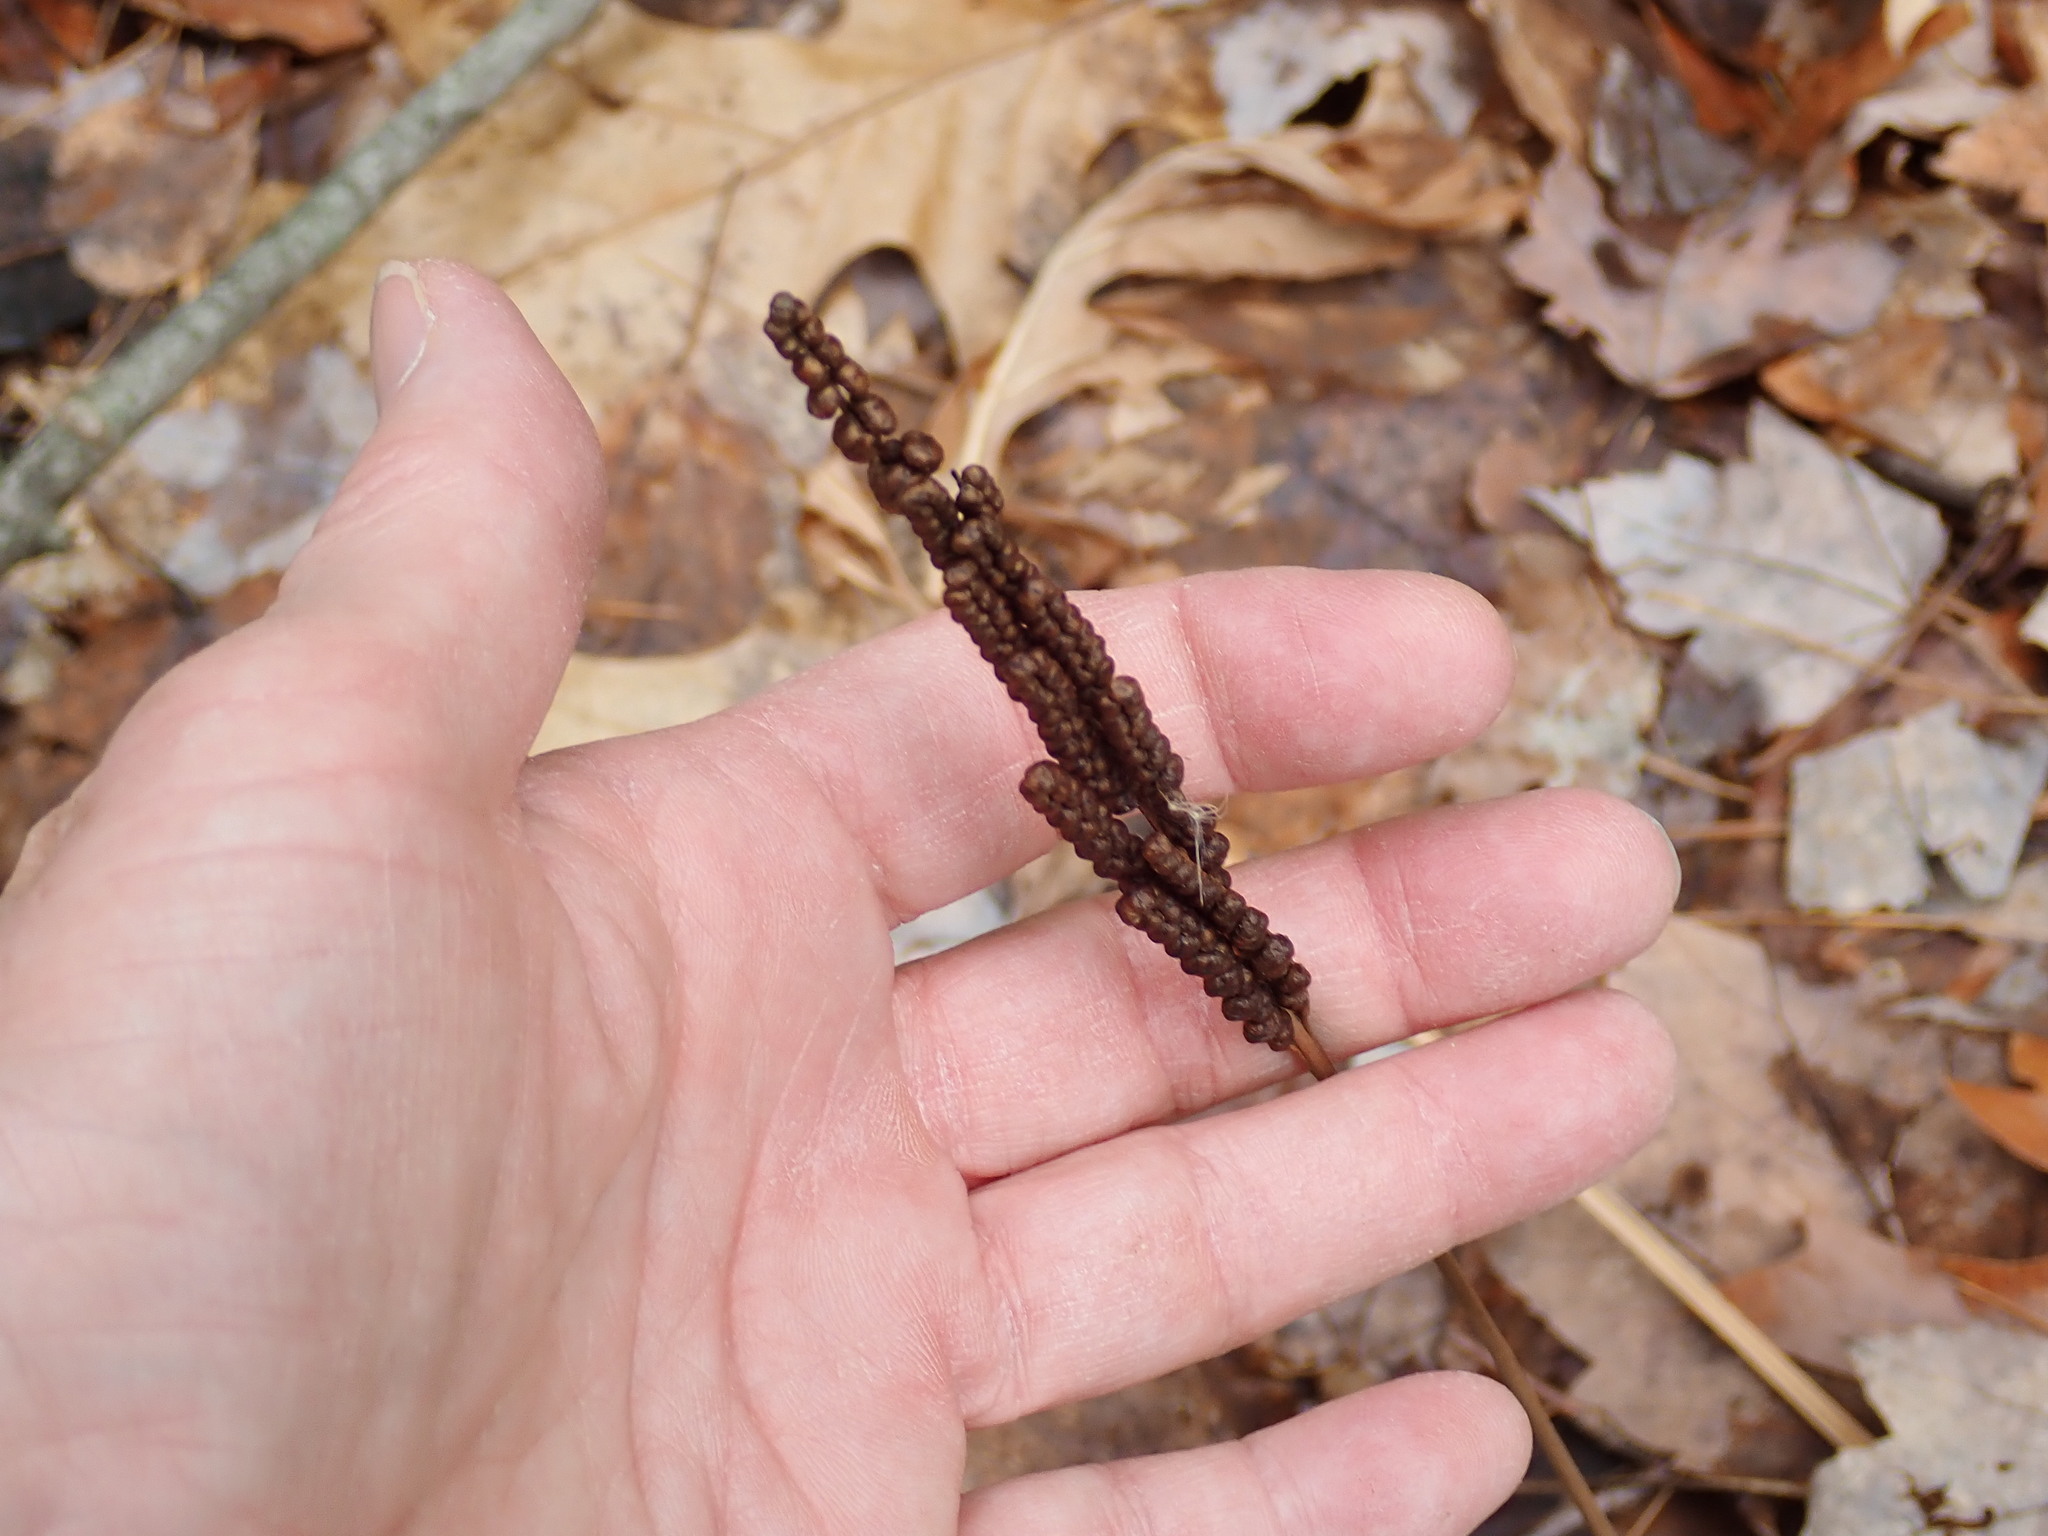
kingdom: Plantae
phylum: Tracheophyta
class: Polypodiopsida
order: Polypodiales
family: Onocleaceae
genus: Onoclea
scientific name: Onoclea sensibilis
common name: Sensitive fern
